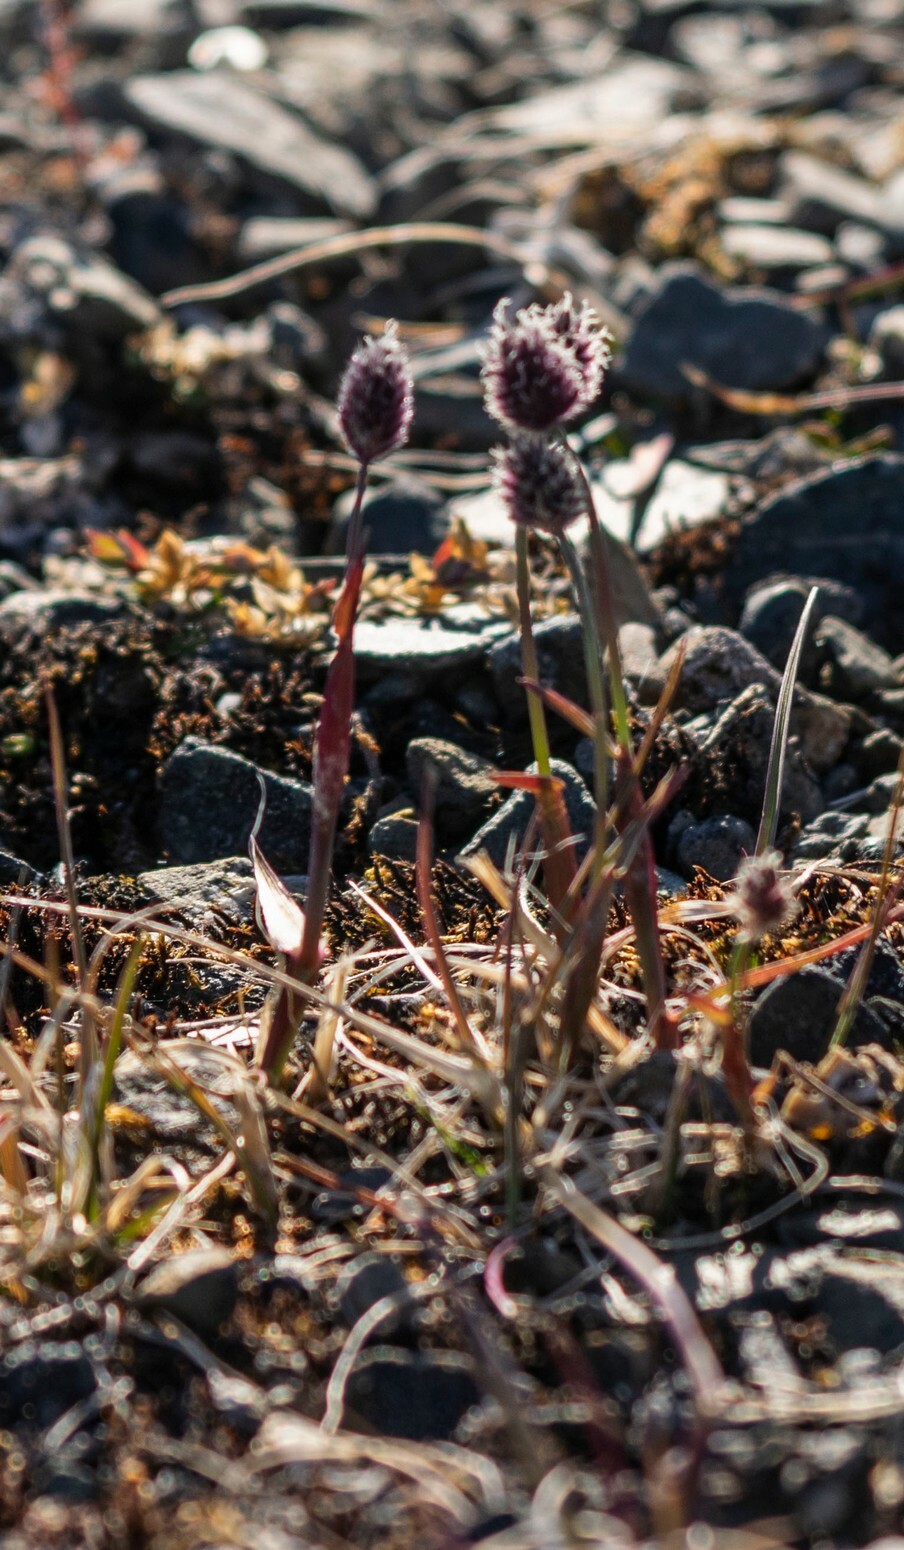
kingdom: Plantae
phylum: Tracheophyta
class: Liliopsida
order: Poales
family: Poaceae
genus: Alopecurus
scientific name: Alopecurus magellanicus
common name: Alpine foxtail
